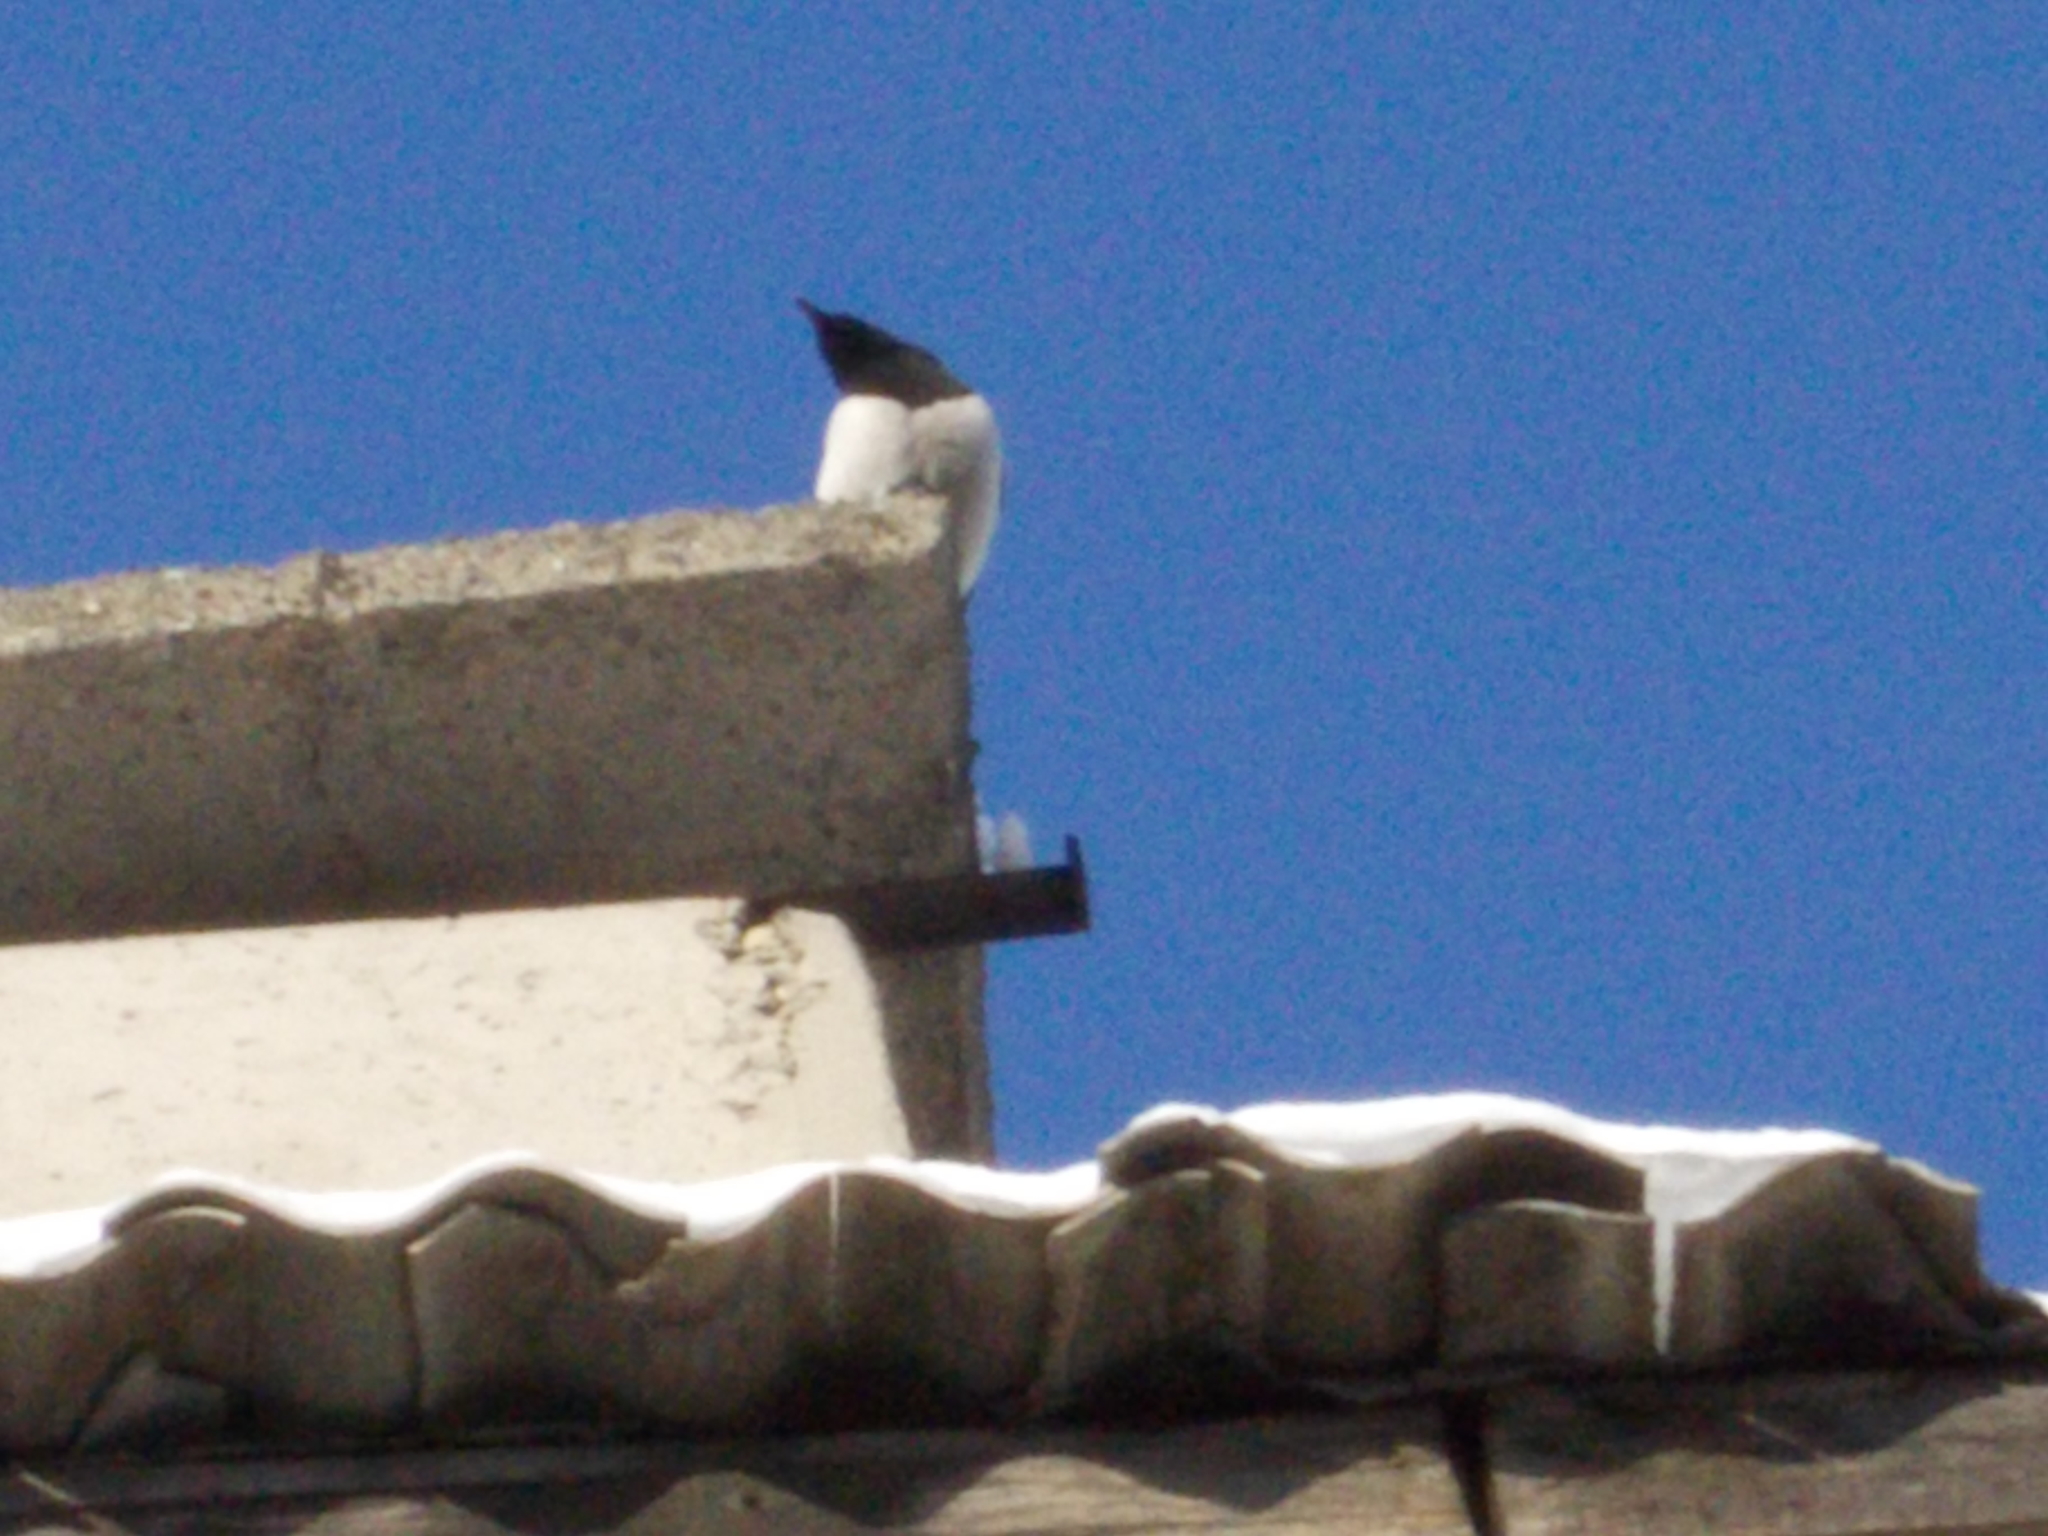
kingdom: Animalia
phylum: Chordata
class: Aves
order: Passeriformes
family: Corvidae
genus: Pica
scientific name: Pica pica
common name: Eurasian magpie
